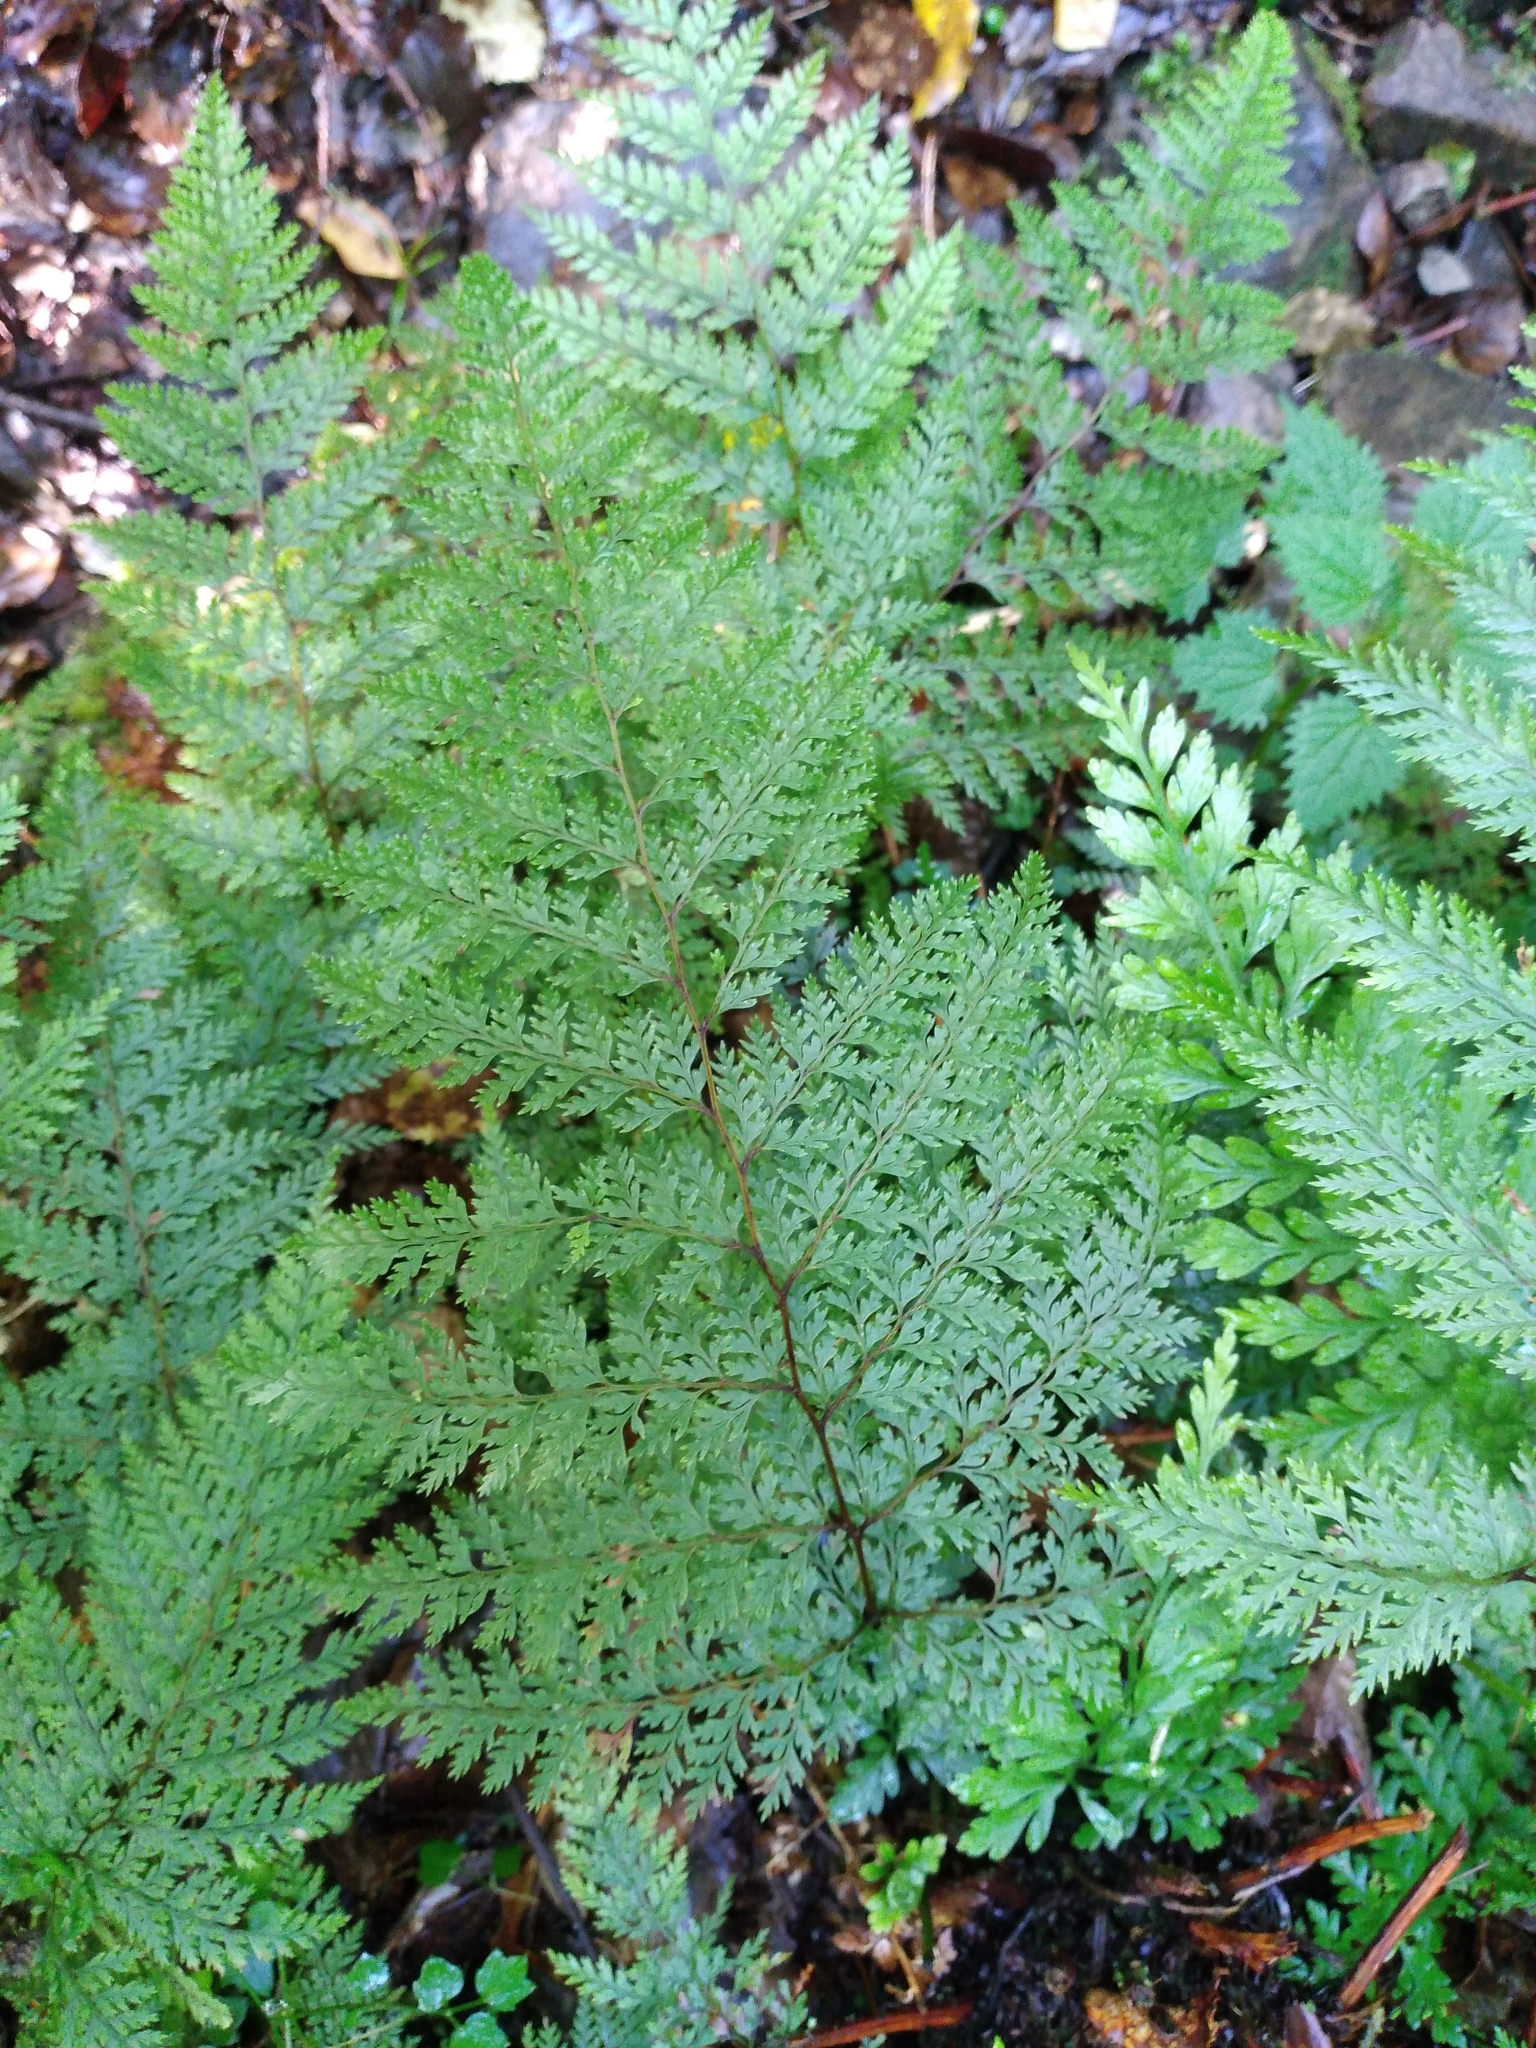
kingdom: Plantae
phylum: Tracheophyta
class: Polypodiopsida
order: Polypodiales
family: Dennstaedtiaceae
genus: Dennstaedtia
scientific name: Dennstaedtia novae-zelandiae
